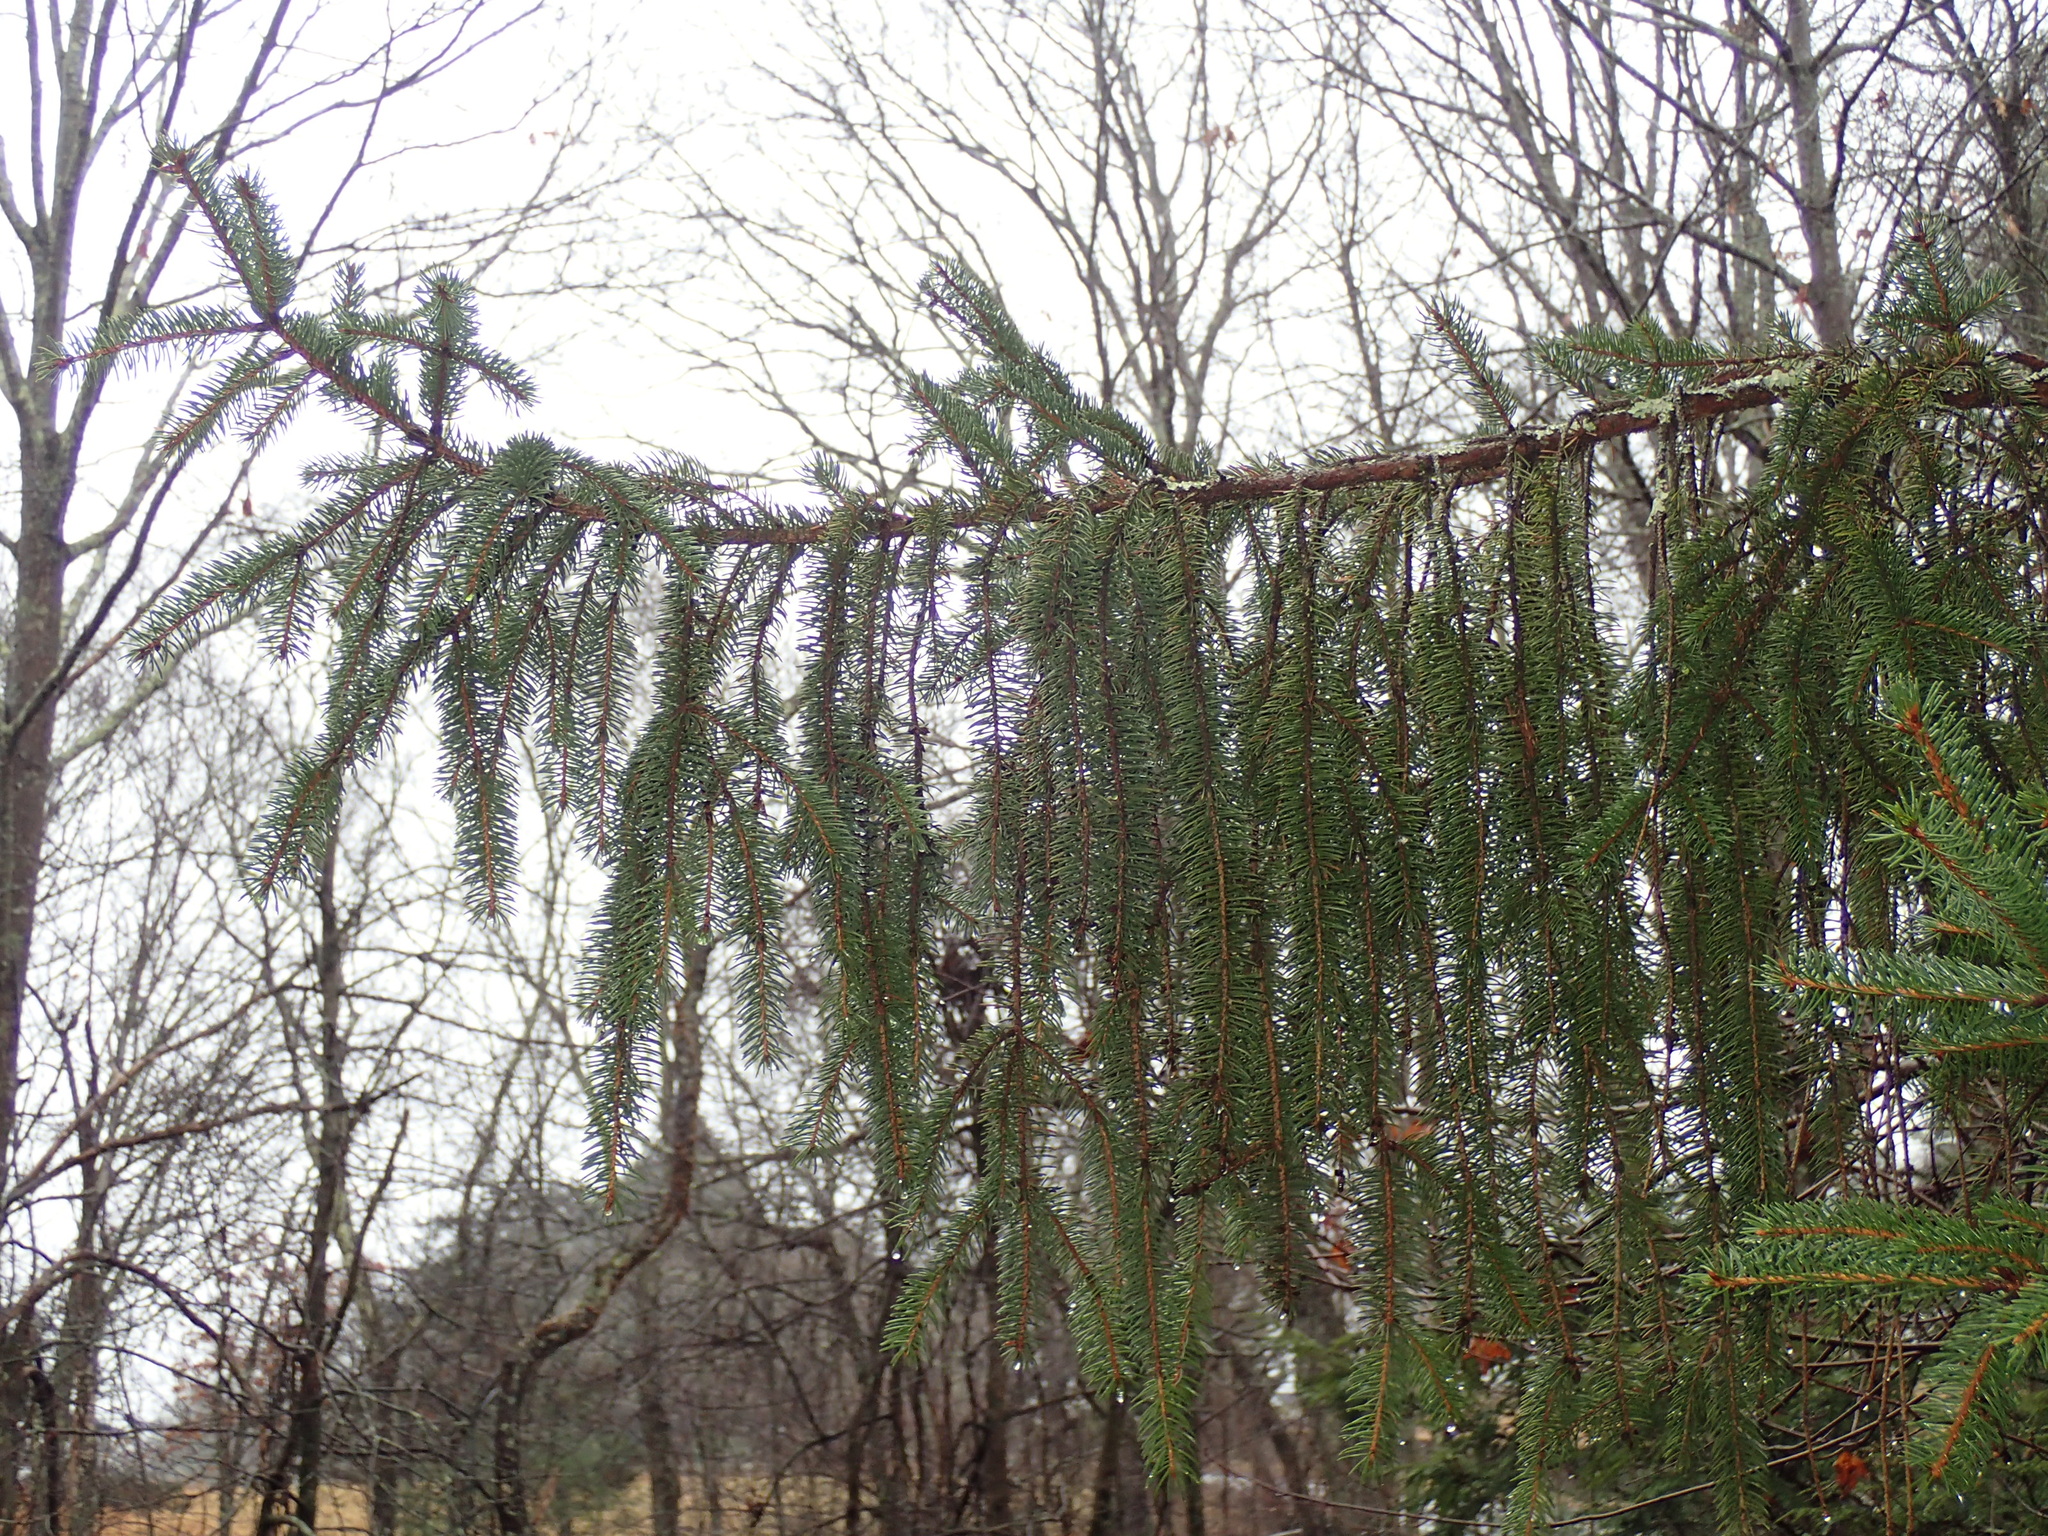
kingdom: Plantae
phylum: Tracheophyta
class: Pinopsida
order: Pinales
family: Pinaceae
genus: Picea
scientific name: Picea abies
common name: Norway spruce
